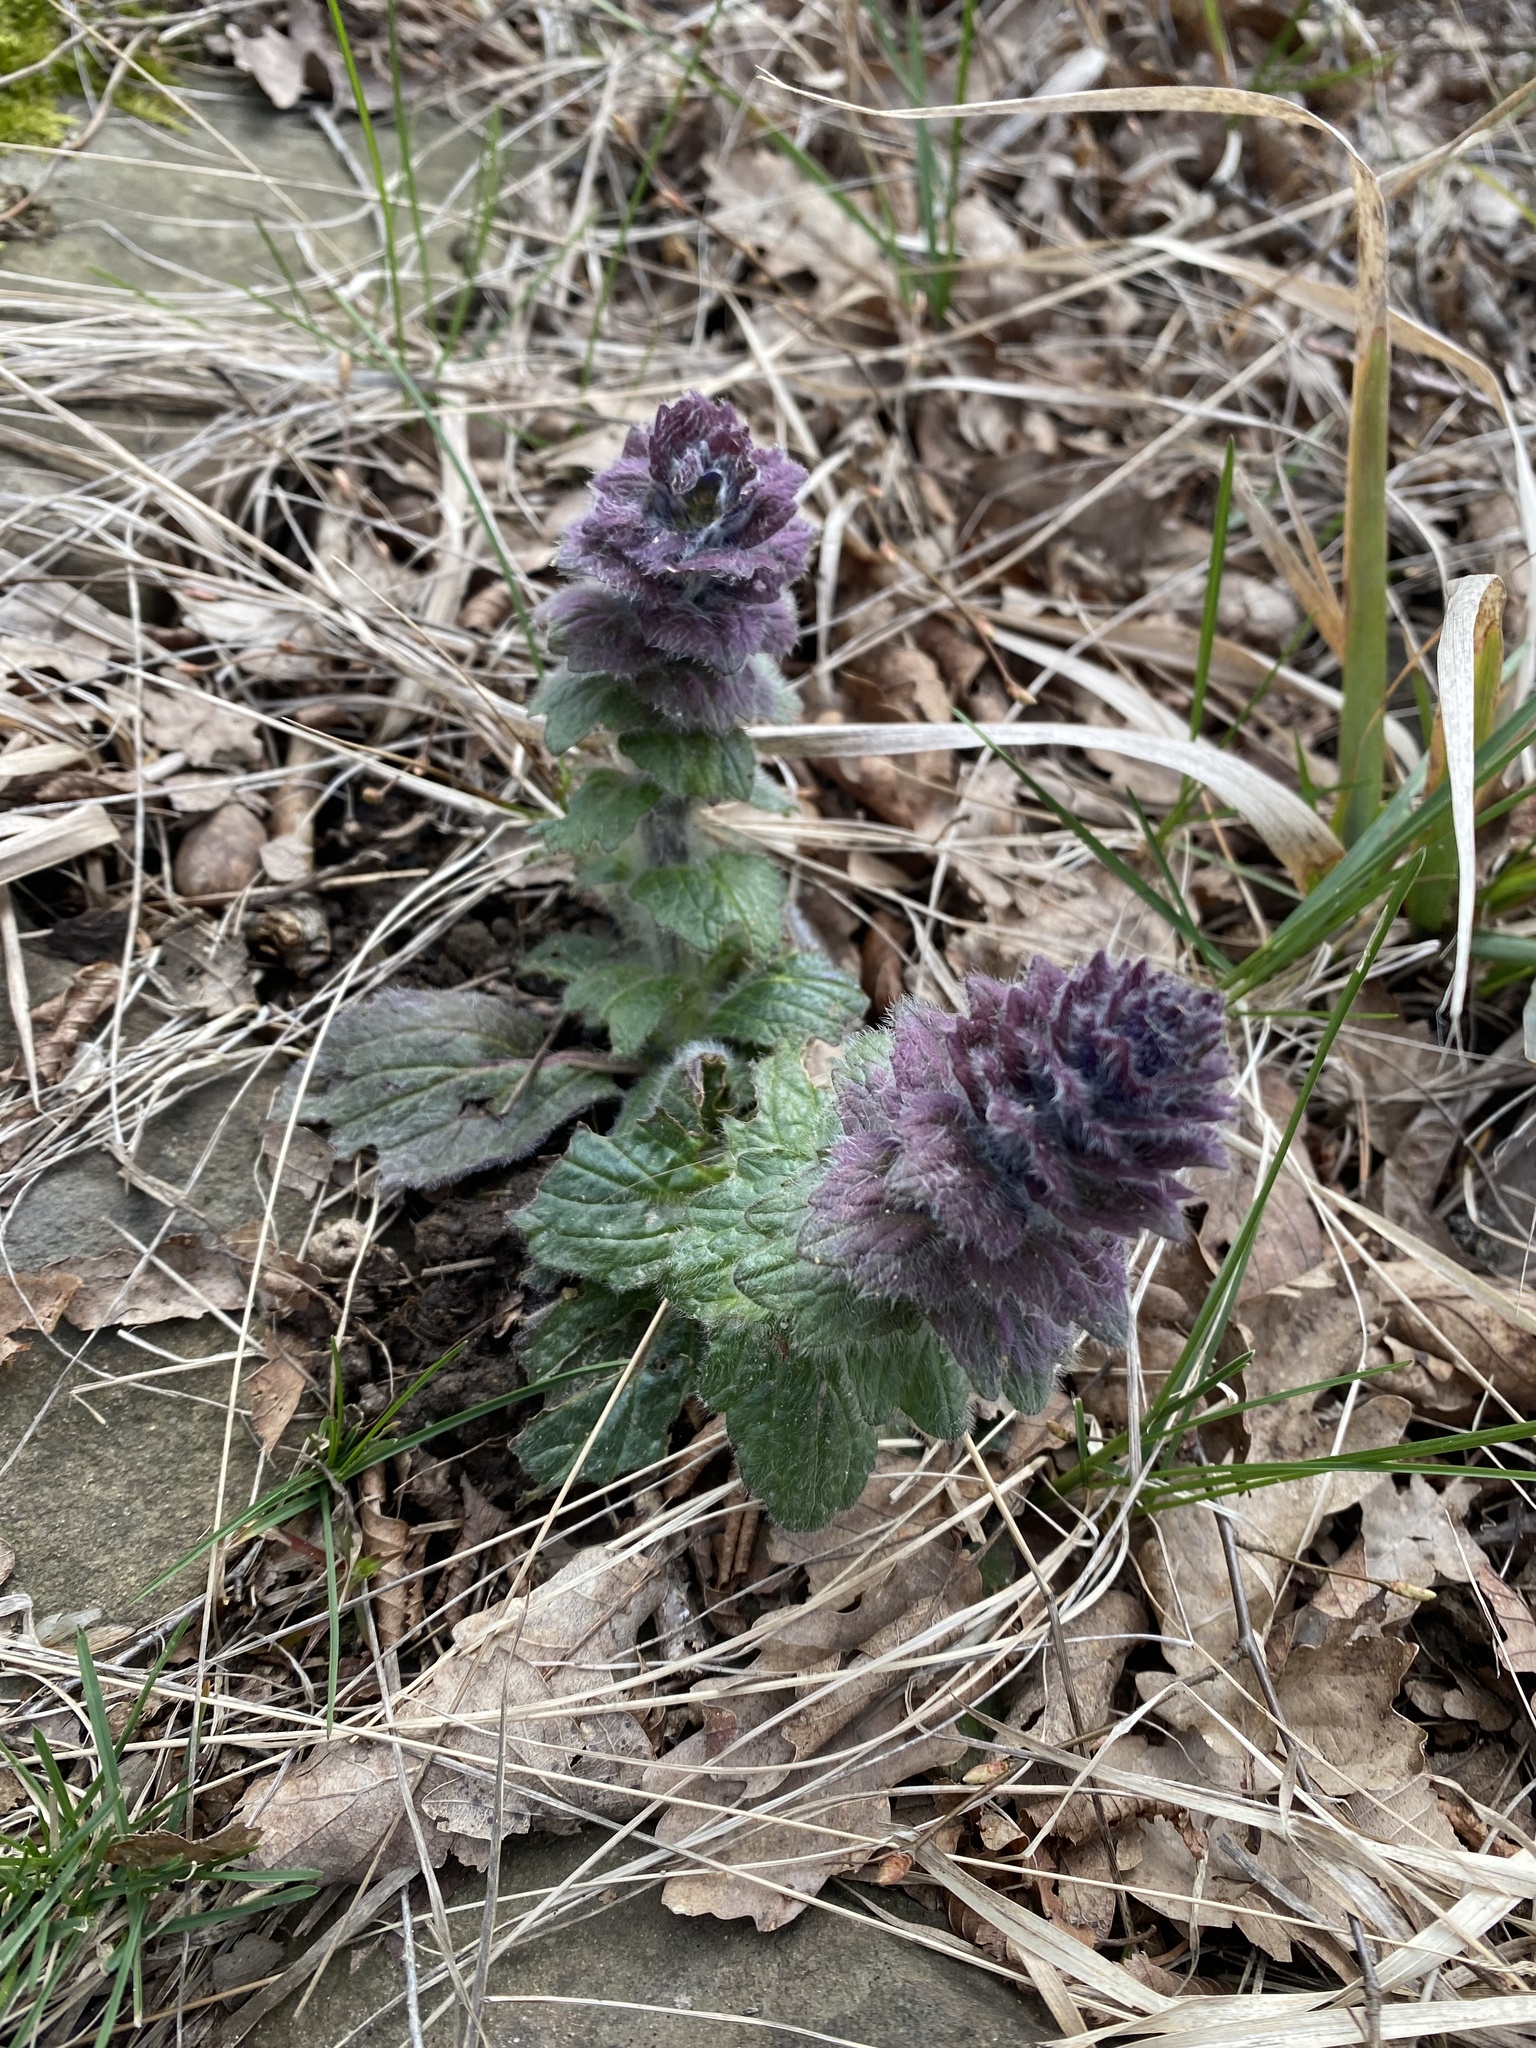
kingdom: Plantae
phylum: Tracheophyta
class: Magnoliopsida
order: Lamiales
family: Lamiaceae
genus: Ajuga
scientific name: Ajuga orientalis
